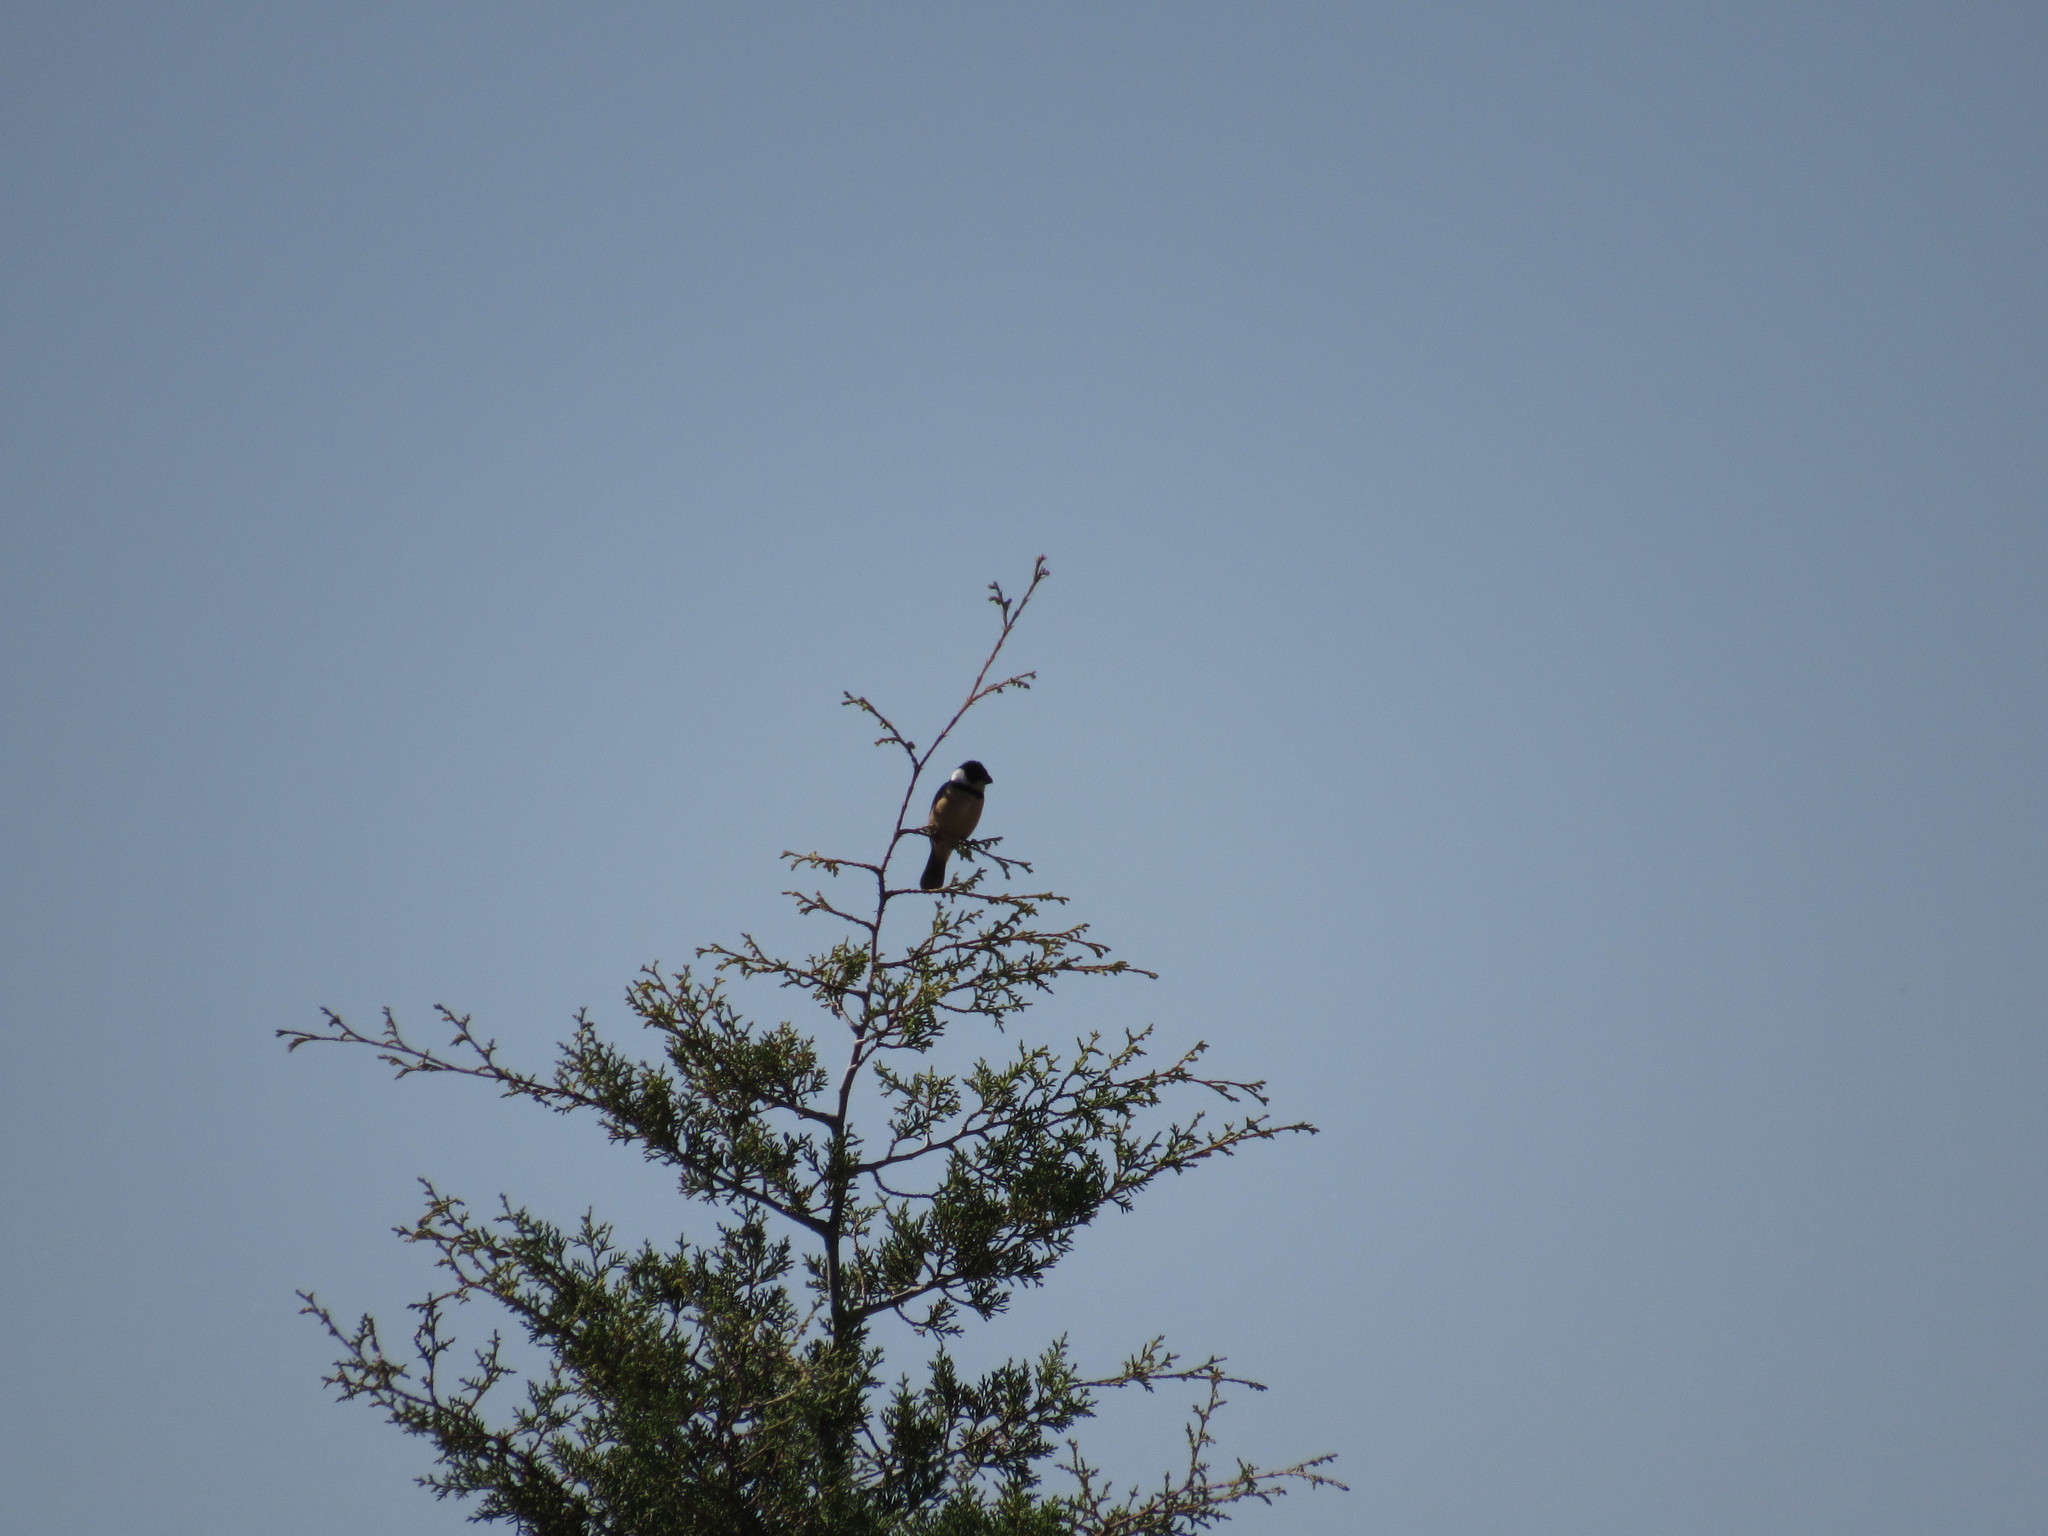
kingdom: Animalia
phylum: Chordata
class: Aves
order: Passeriformes
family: Thraupidae
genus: Sporophila
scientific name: Sporophila torqueola
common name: White-collared seedeater
